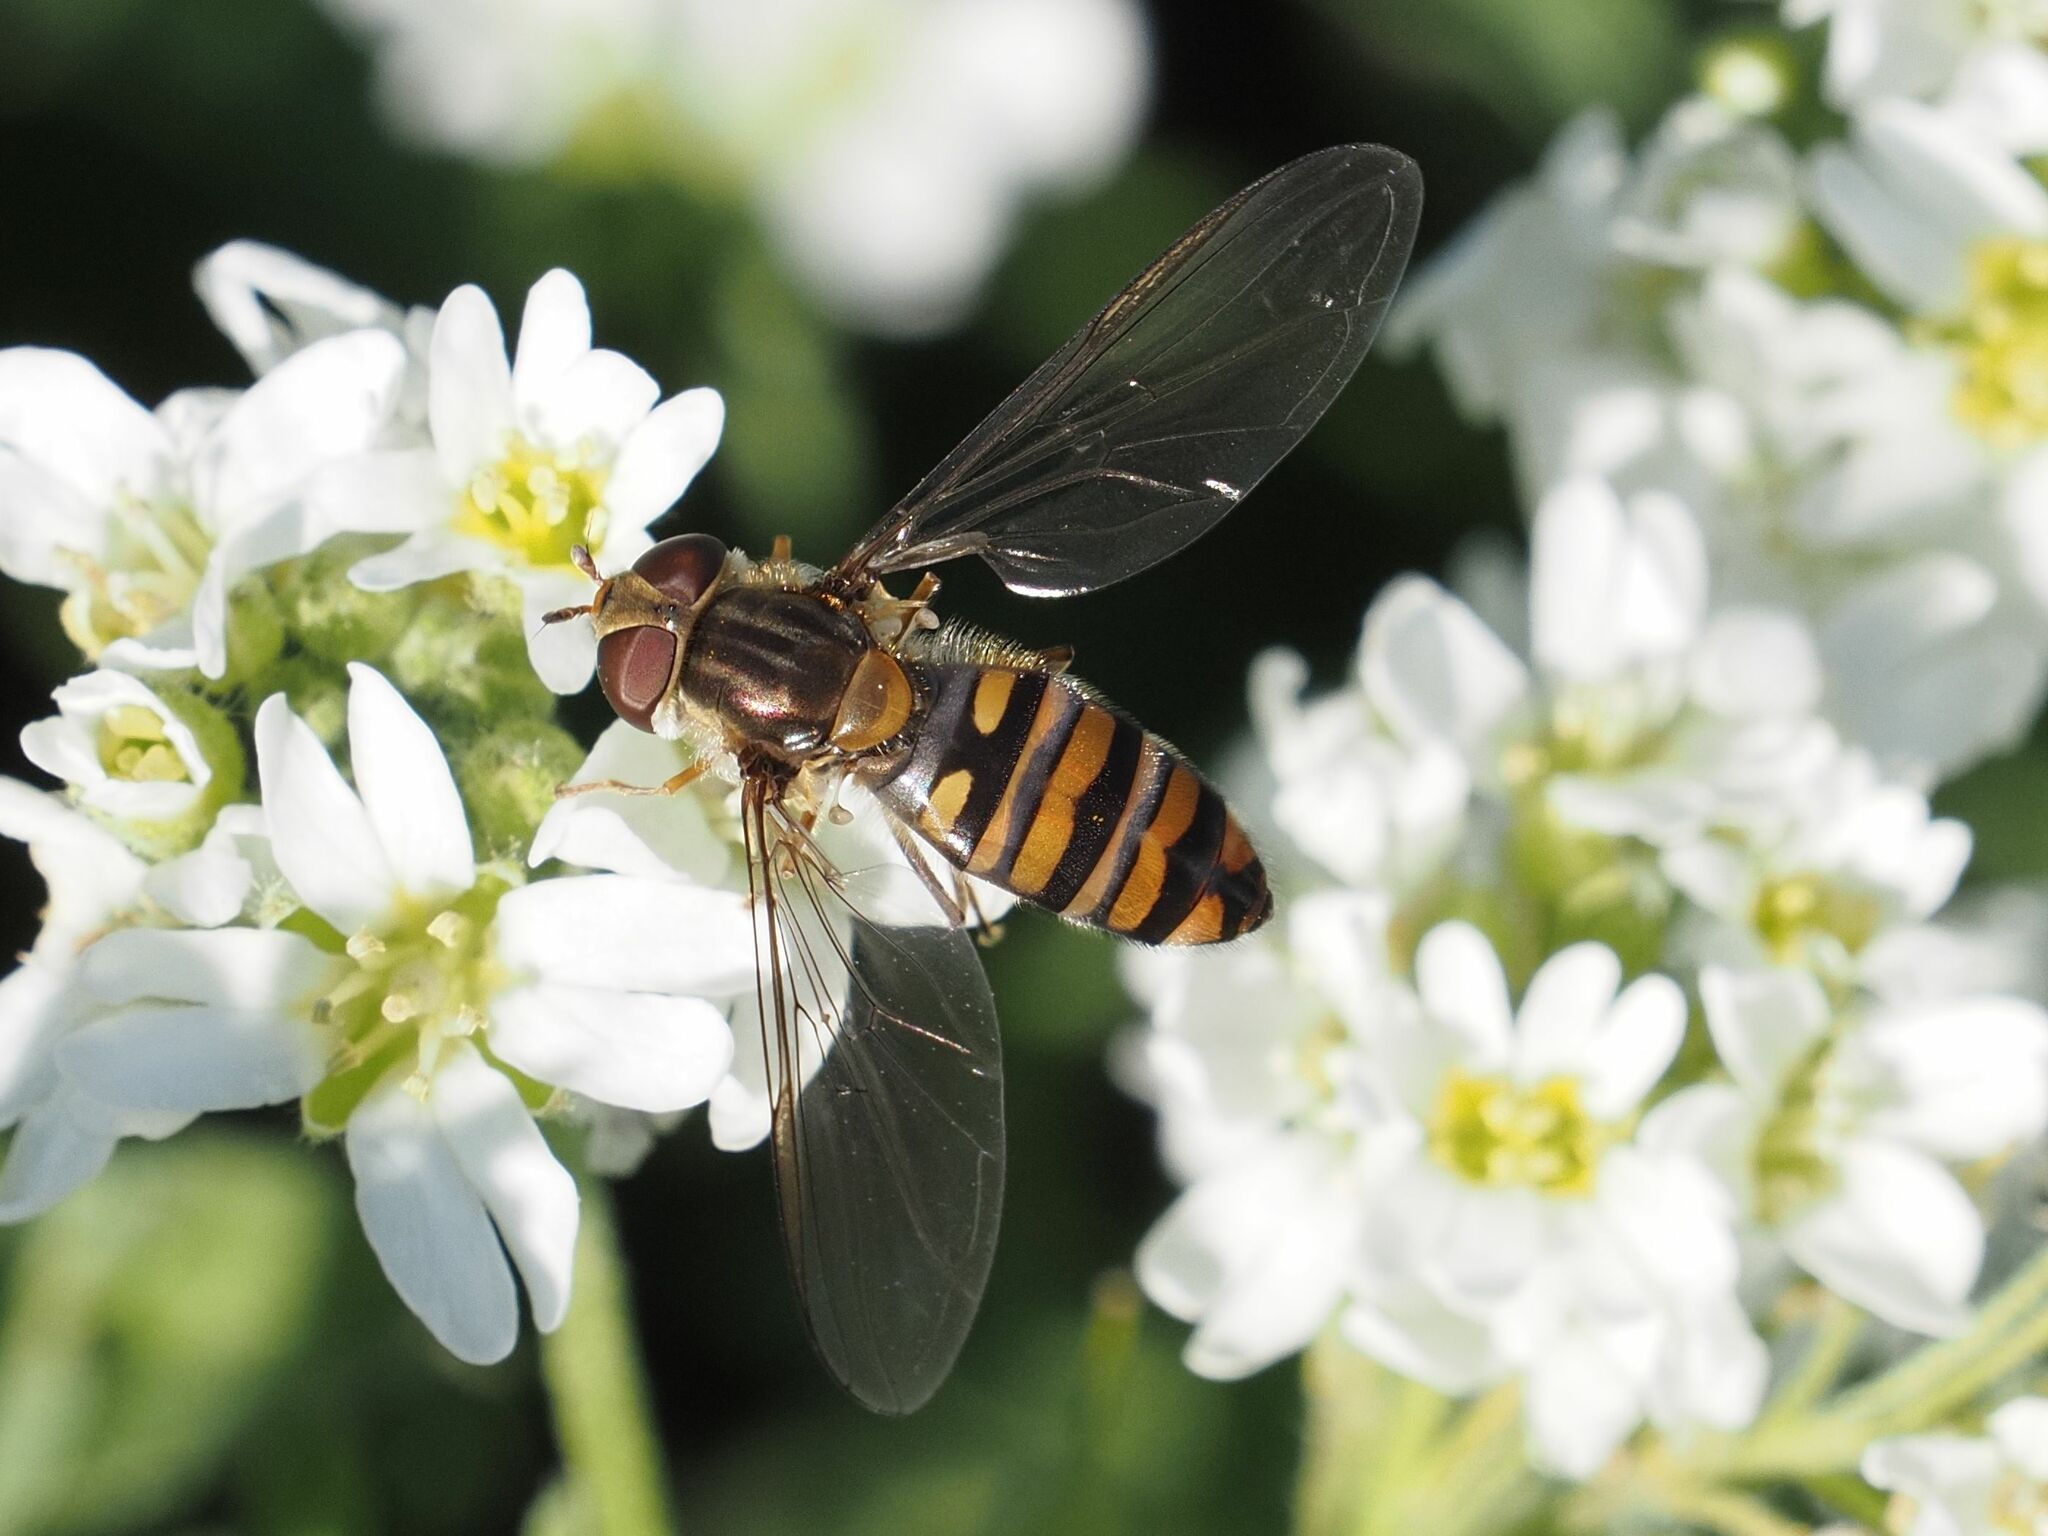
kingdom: Animalia
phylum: Arthropoda
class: Insecta
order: Diptera
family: Syrphidae
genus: Episyrphus
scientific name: Episyrphus balteatus
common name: Marmalade hoverfly
